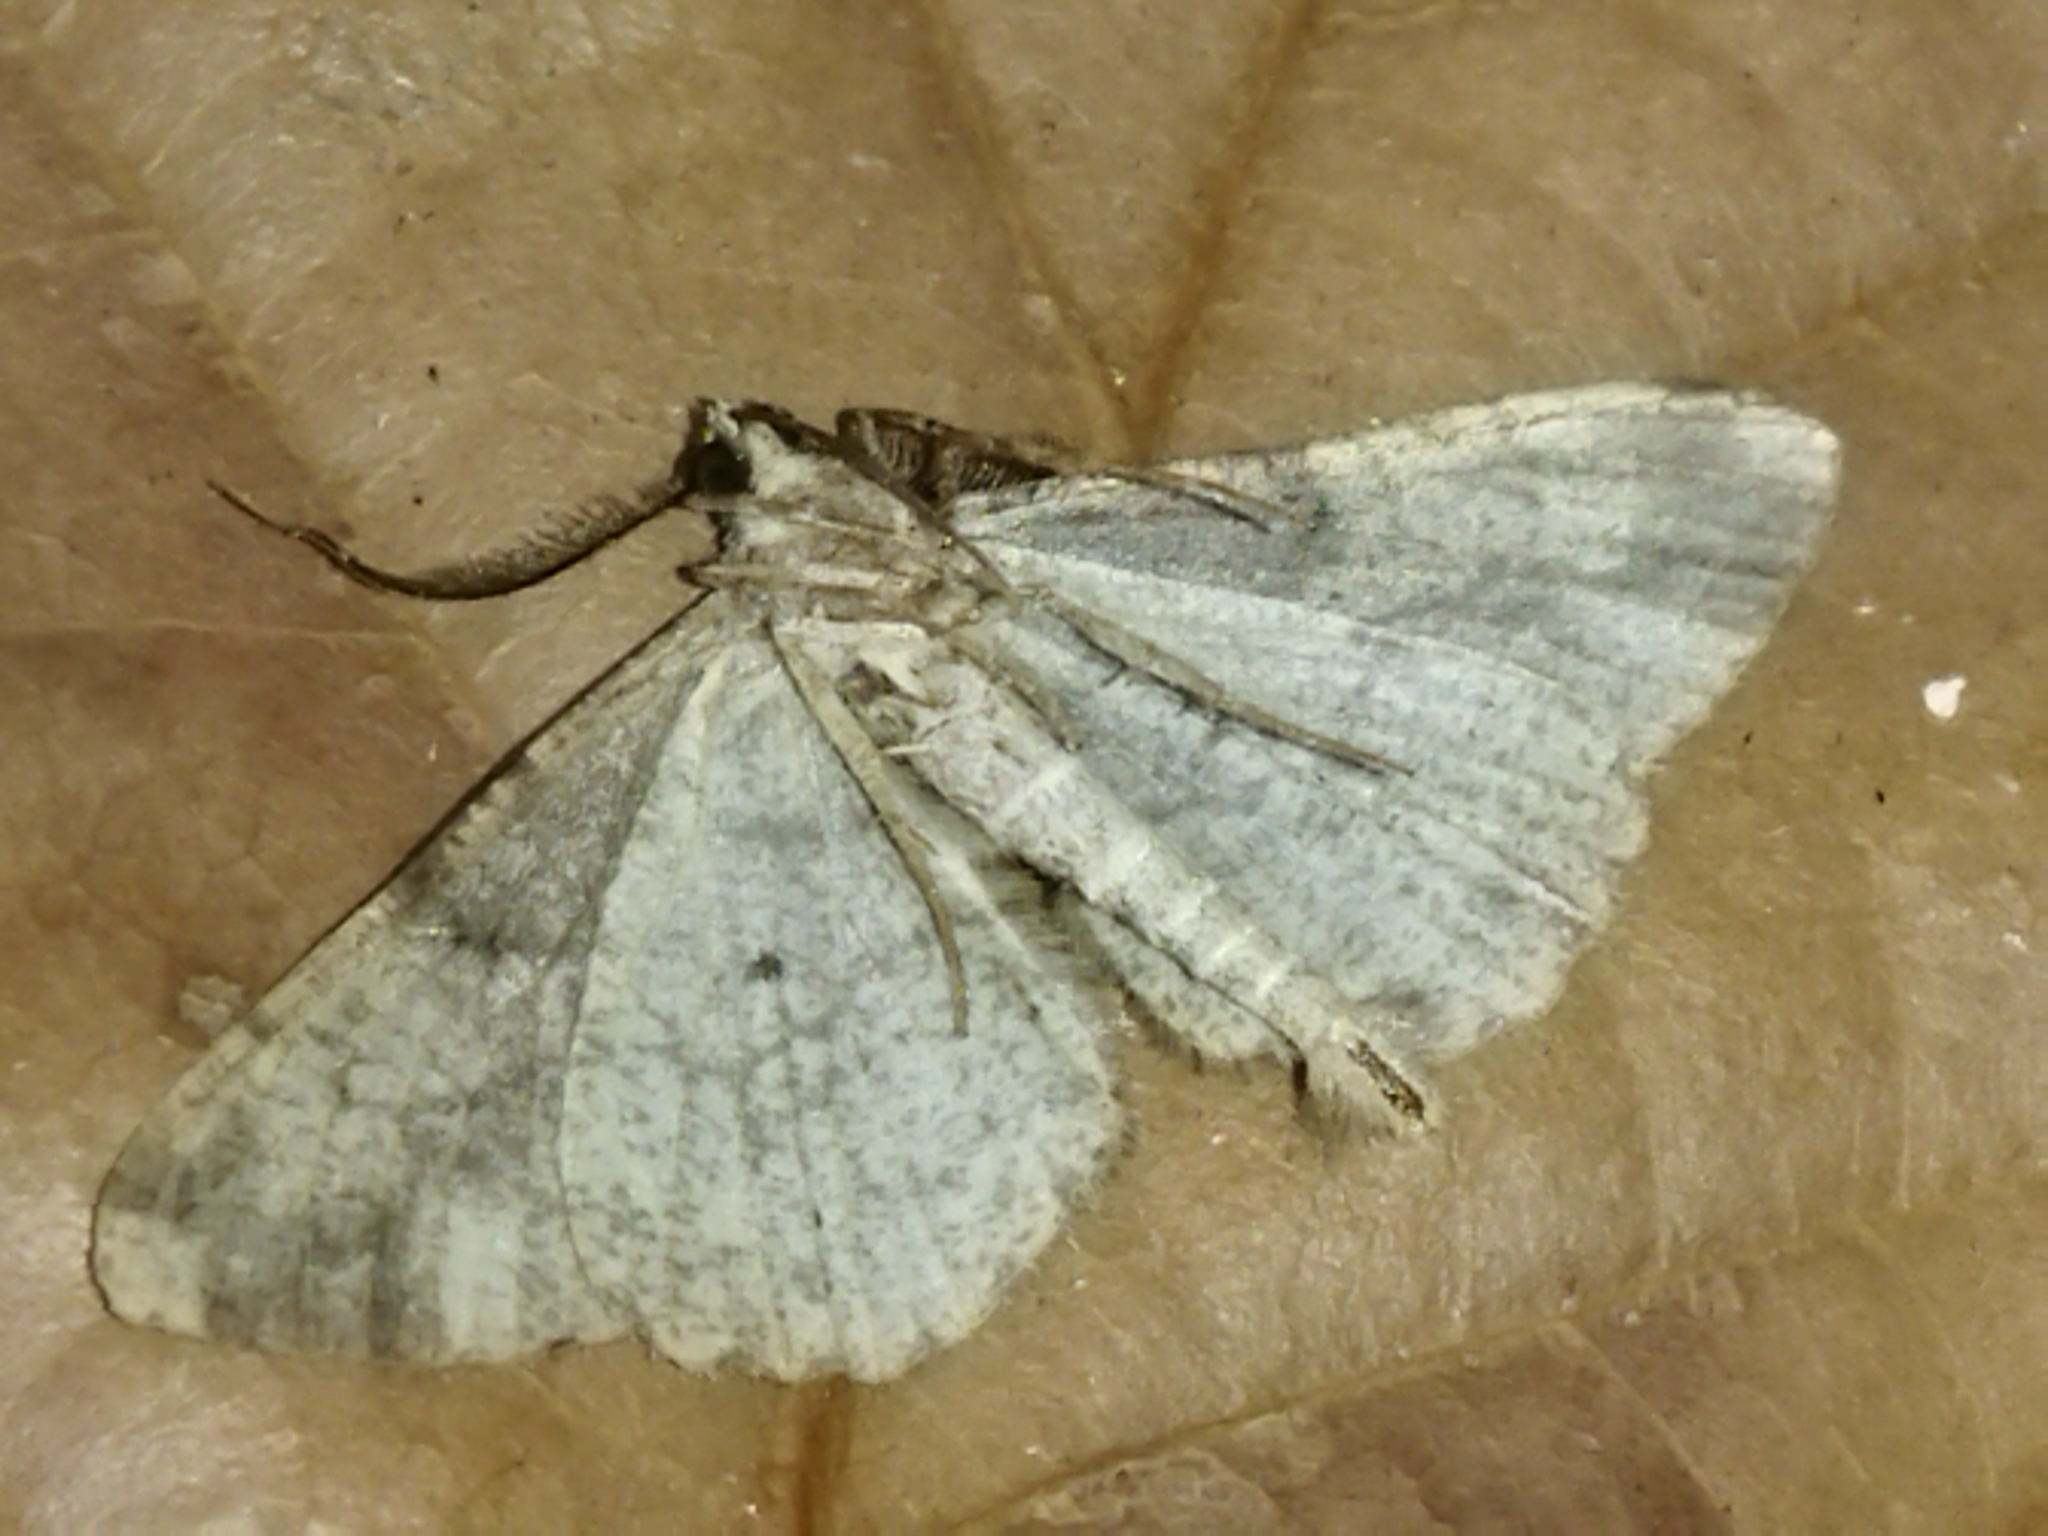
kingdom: Animalia
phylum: Arthropoda
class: Insecta
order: Lepidoptera
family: Geometridae
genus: Peribatodes
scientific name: Peribatodes rhomboidaria
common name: Willow beauty
